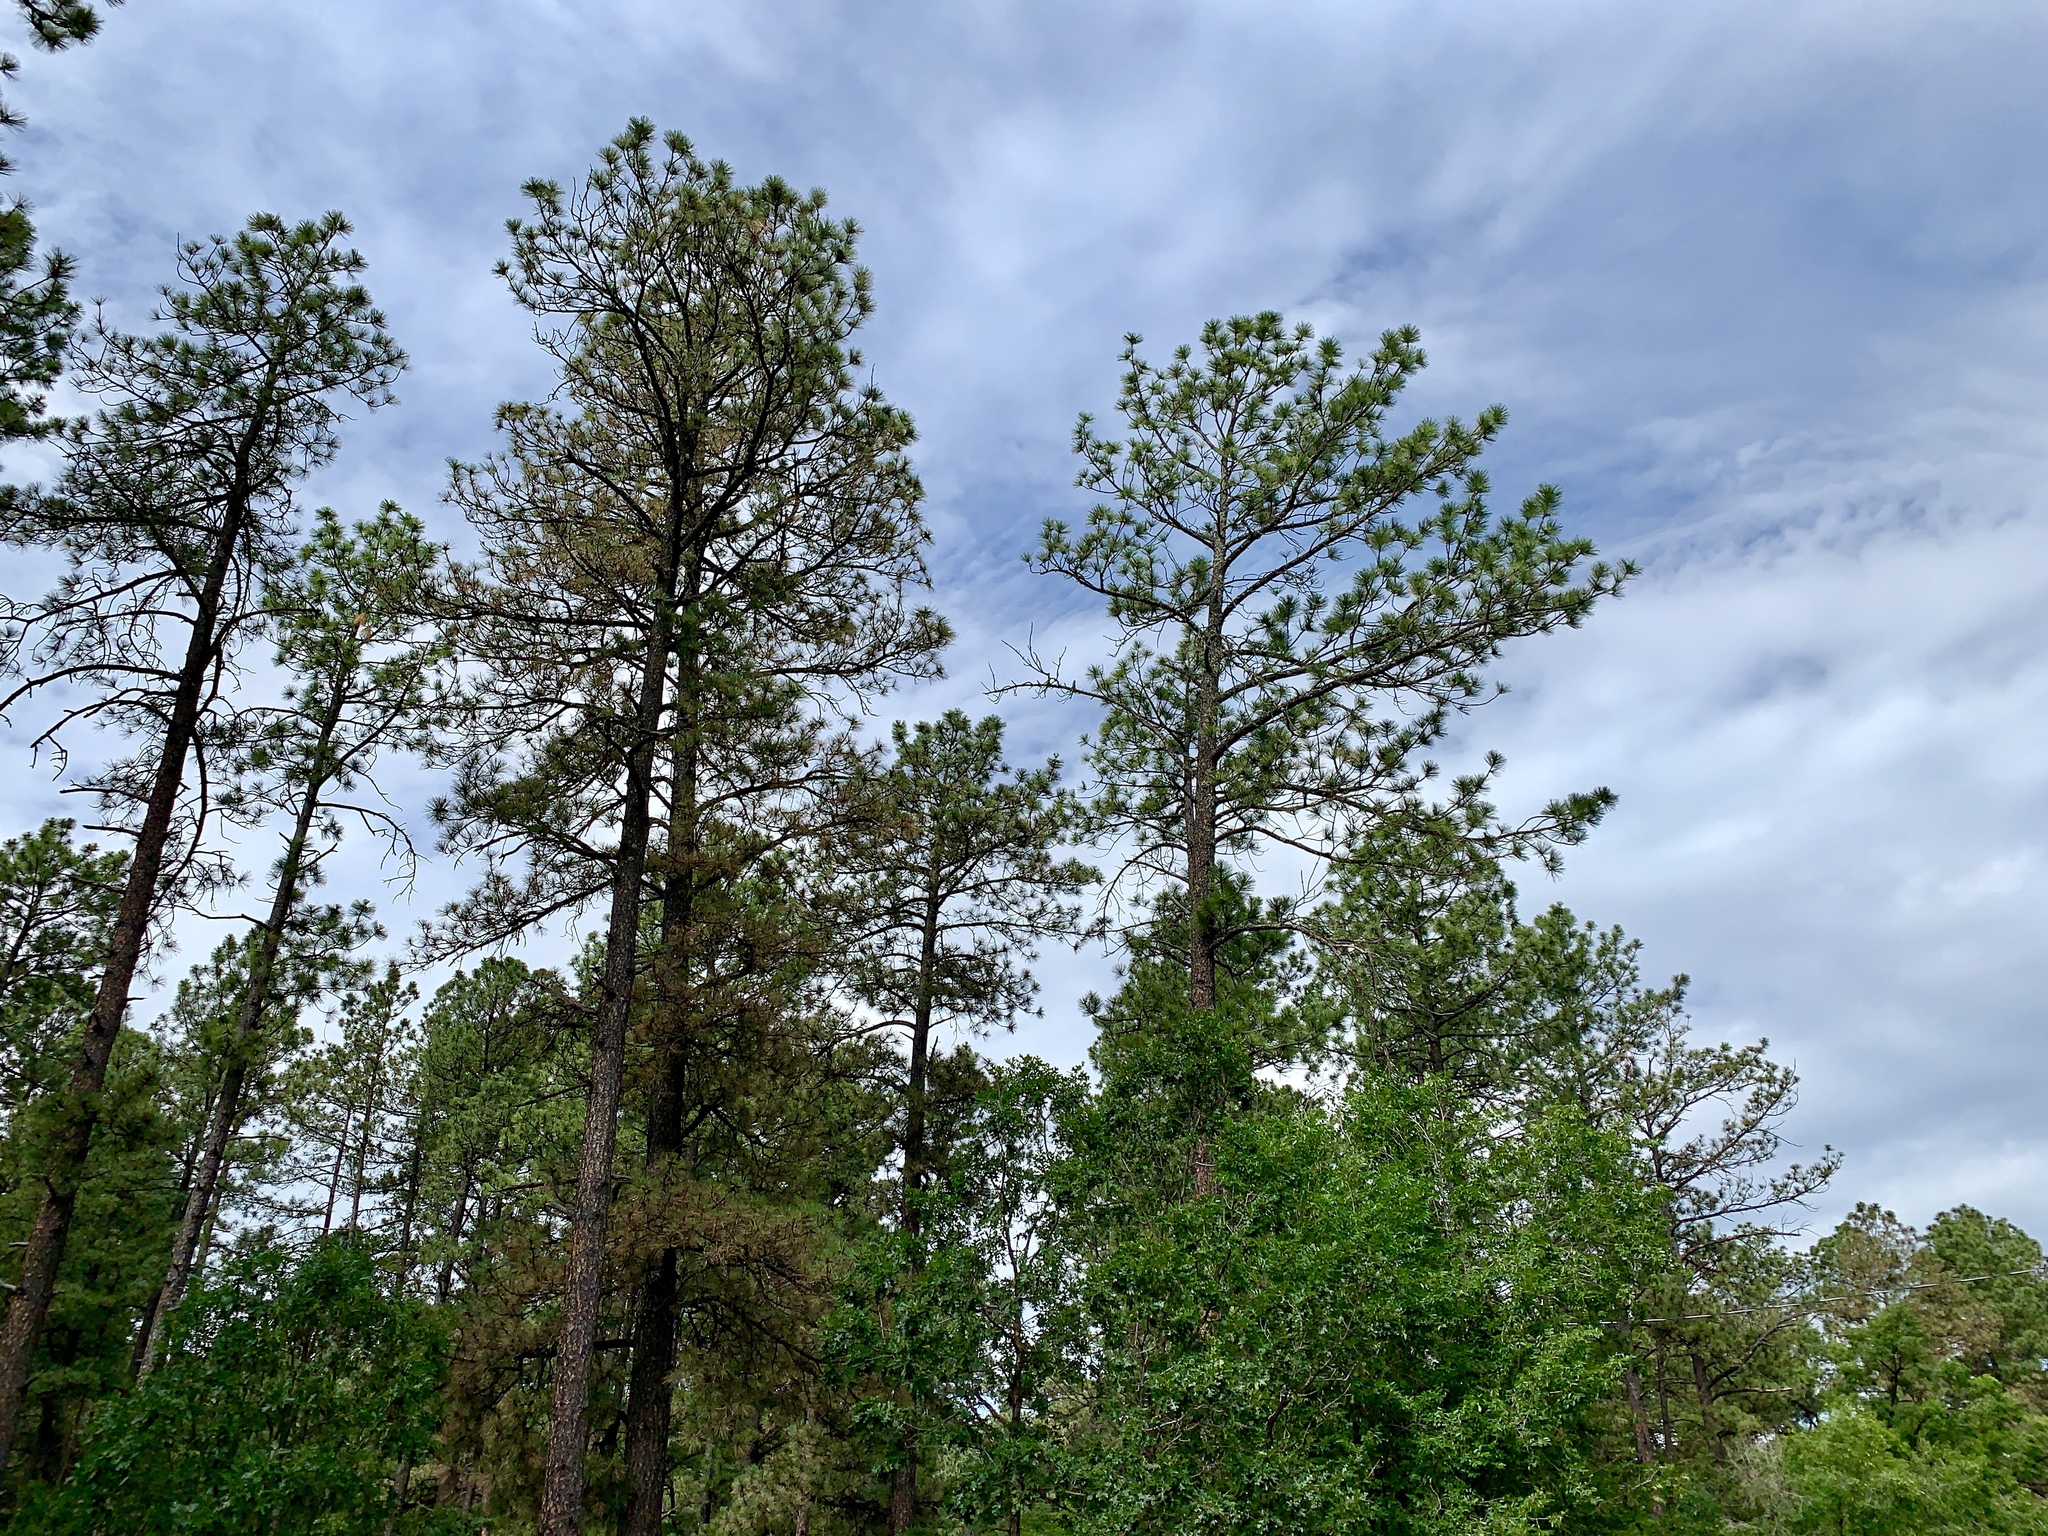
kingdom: Plantae
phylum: Tracheophyta
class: Pinopsida
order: Pinales
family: Pinaceae
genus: Pinus
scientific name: Pinus ponderosa
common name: Western yellow-pine
